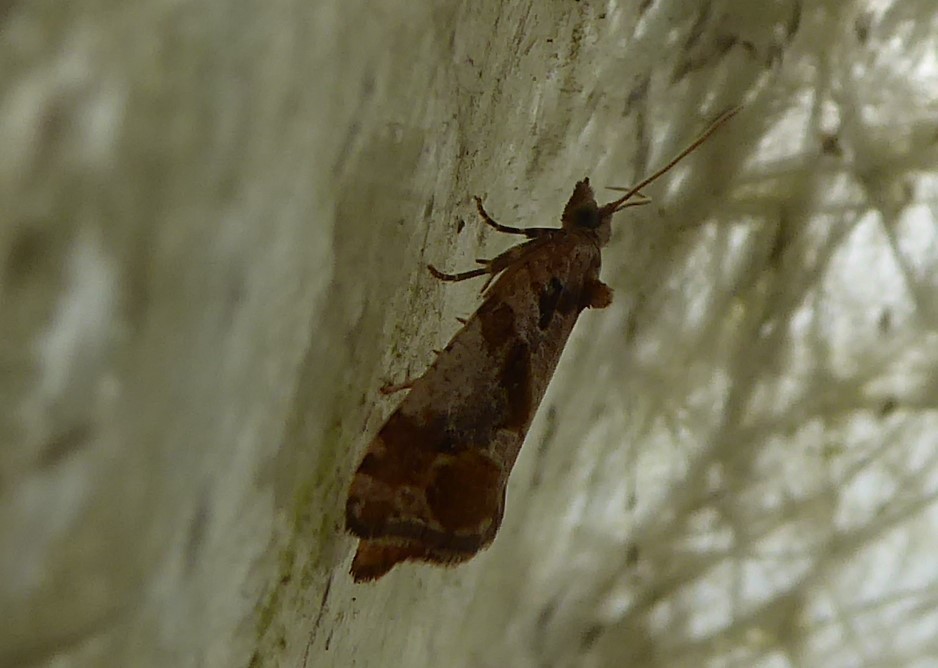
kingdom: Animalia
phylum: Arthropoda
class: Insecta
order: Lepidoptera
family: Tortricidae
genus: Pyrgotis
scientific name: Pyrgotis plagiatana
